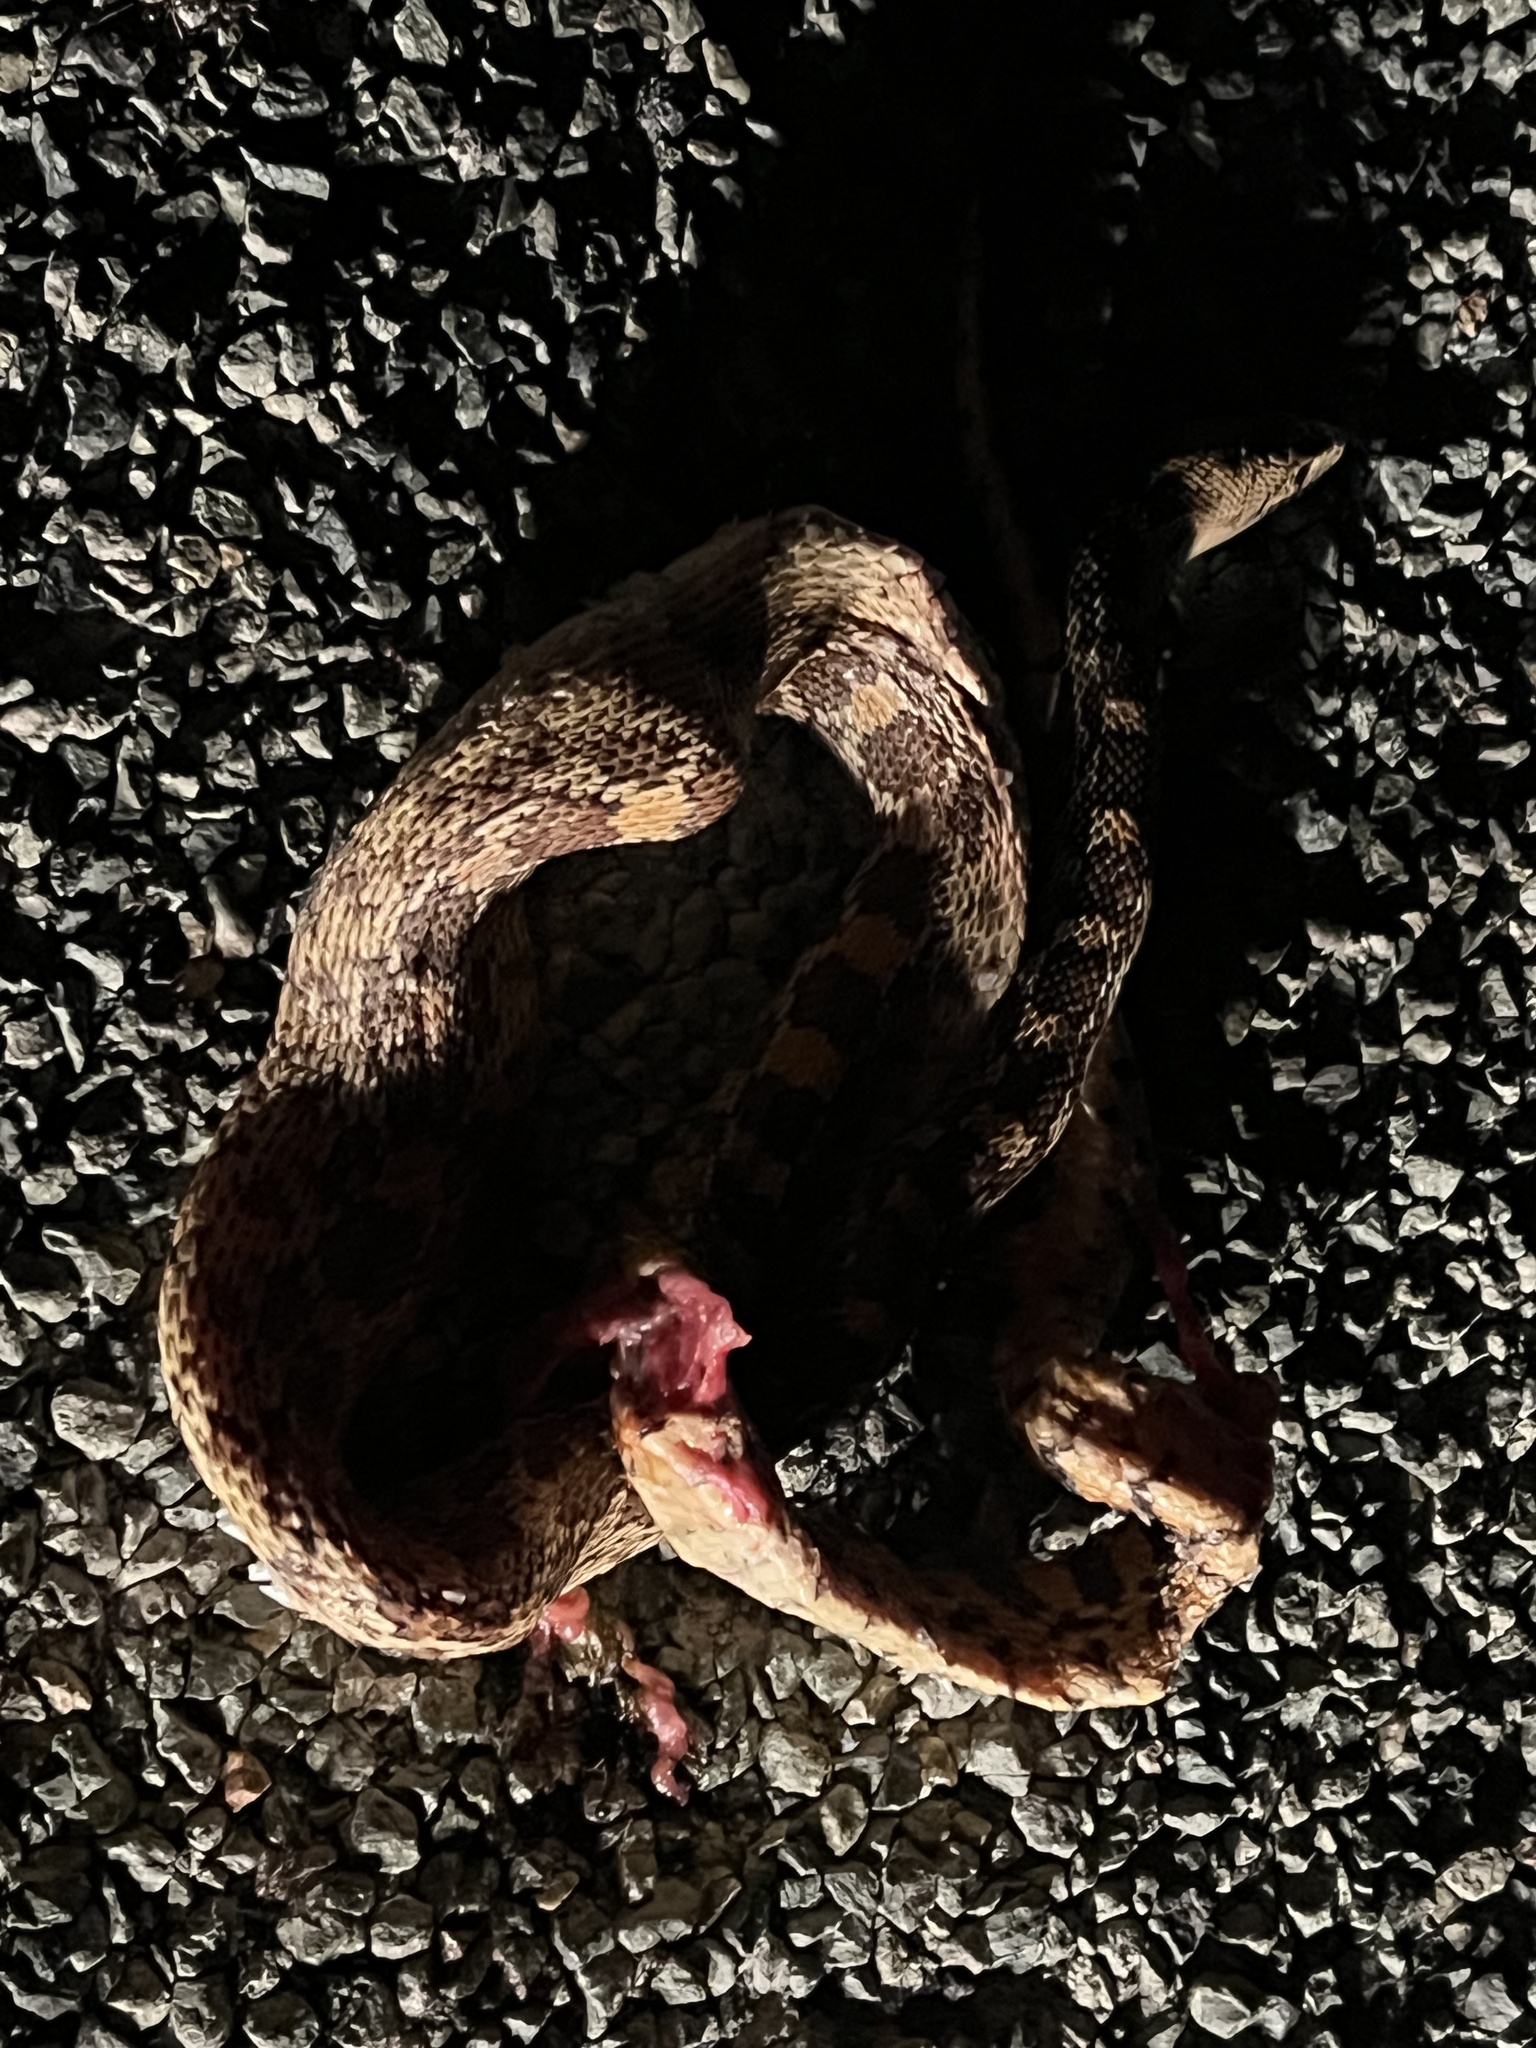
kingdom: Animalia
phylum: Chordata
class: Squamata
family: Colubridae
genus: Pituophis
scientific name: Pituophis catenifer
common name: Gopher snake
